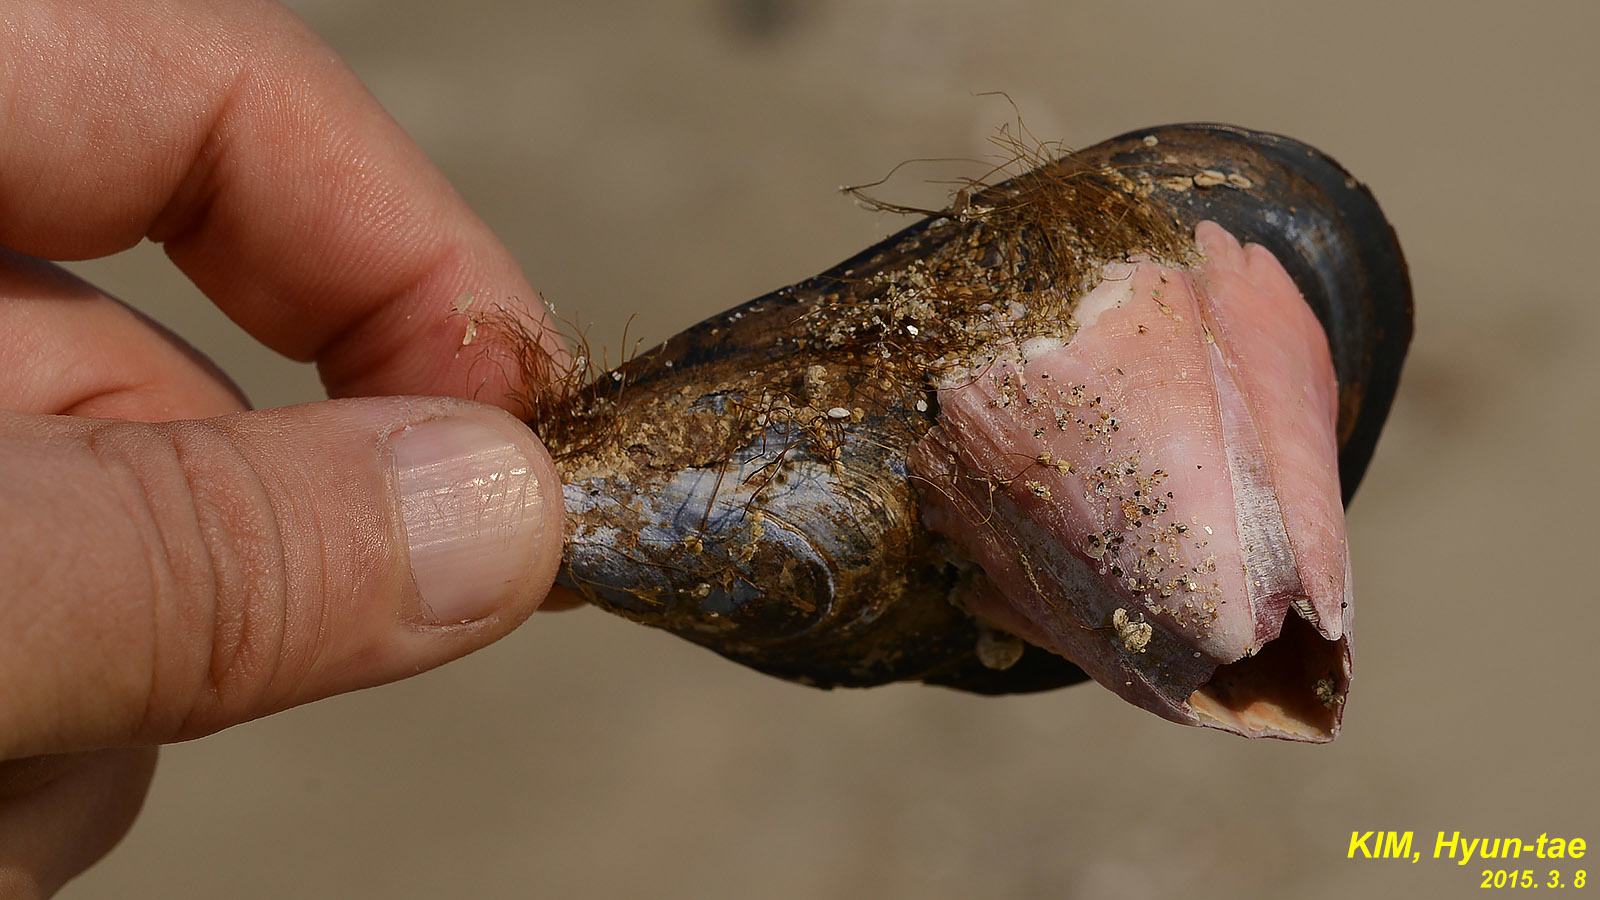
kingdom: Animalia
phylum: Arthropoda
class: Maxillopoda
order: Sessilia
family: Balanidae
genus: Megabalanus
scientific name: Megabalanus rosa
